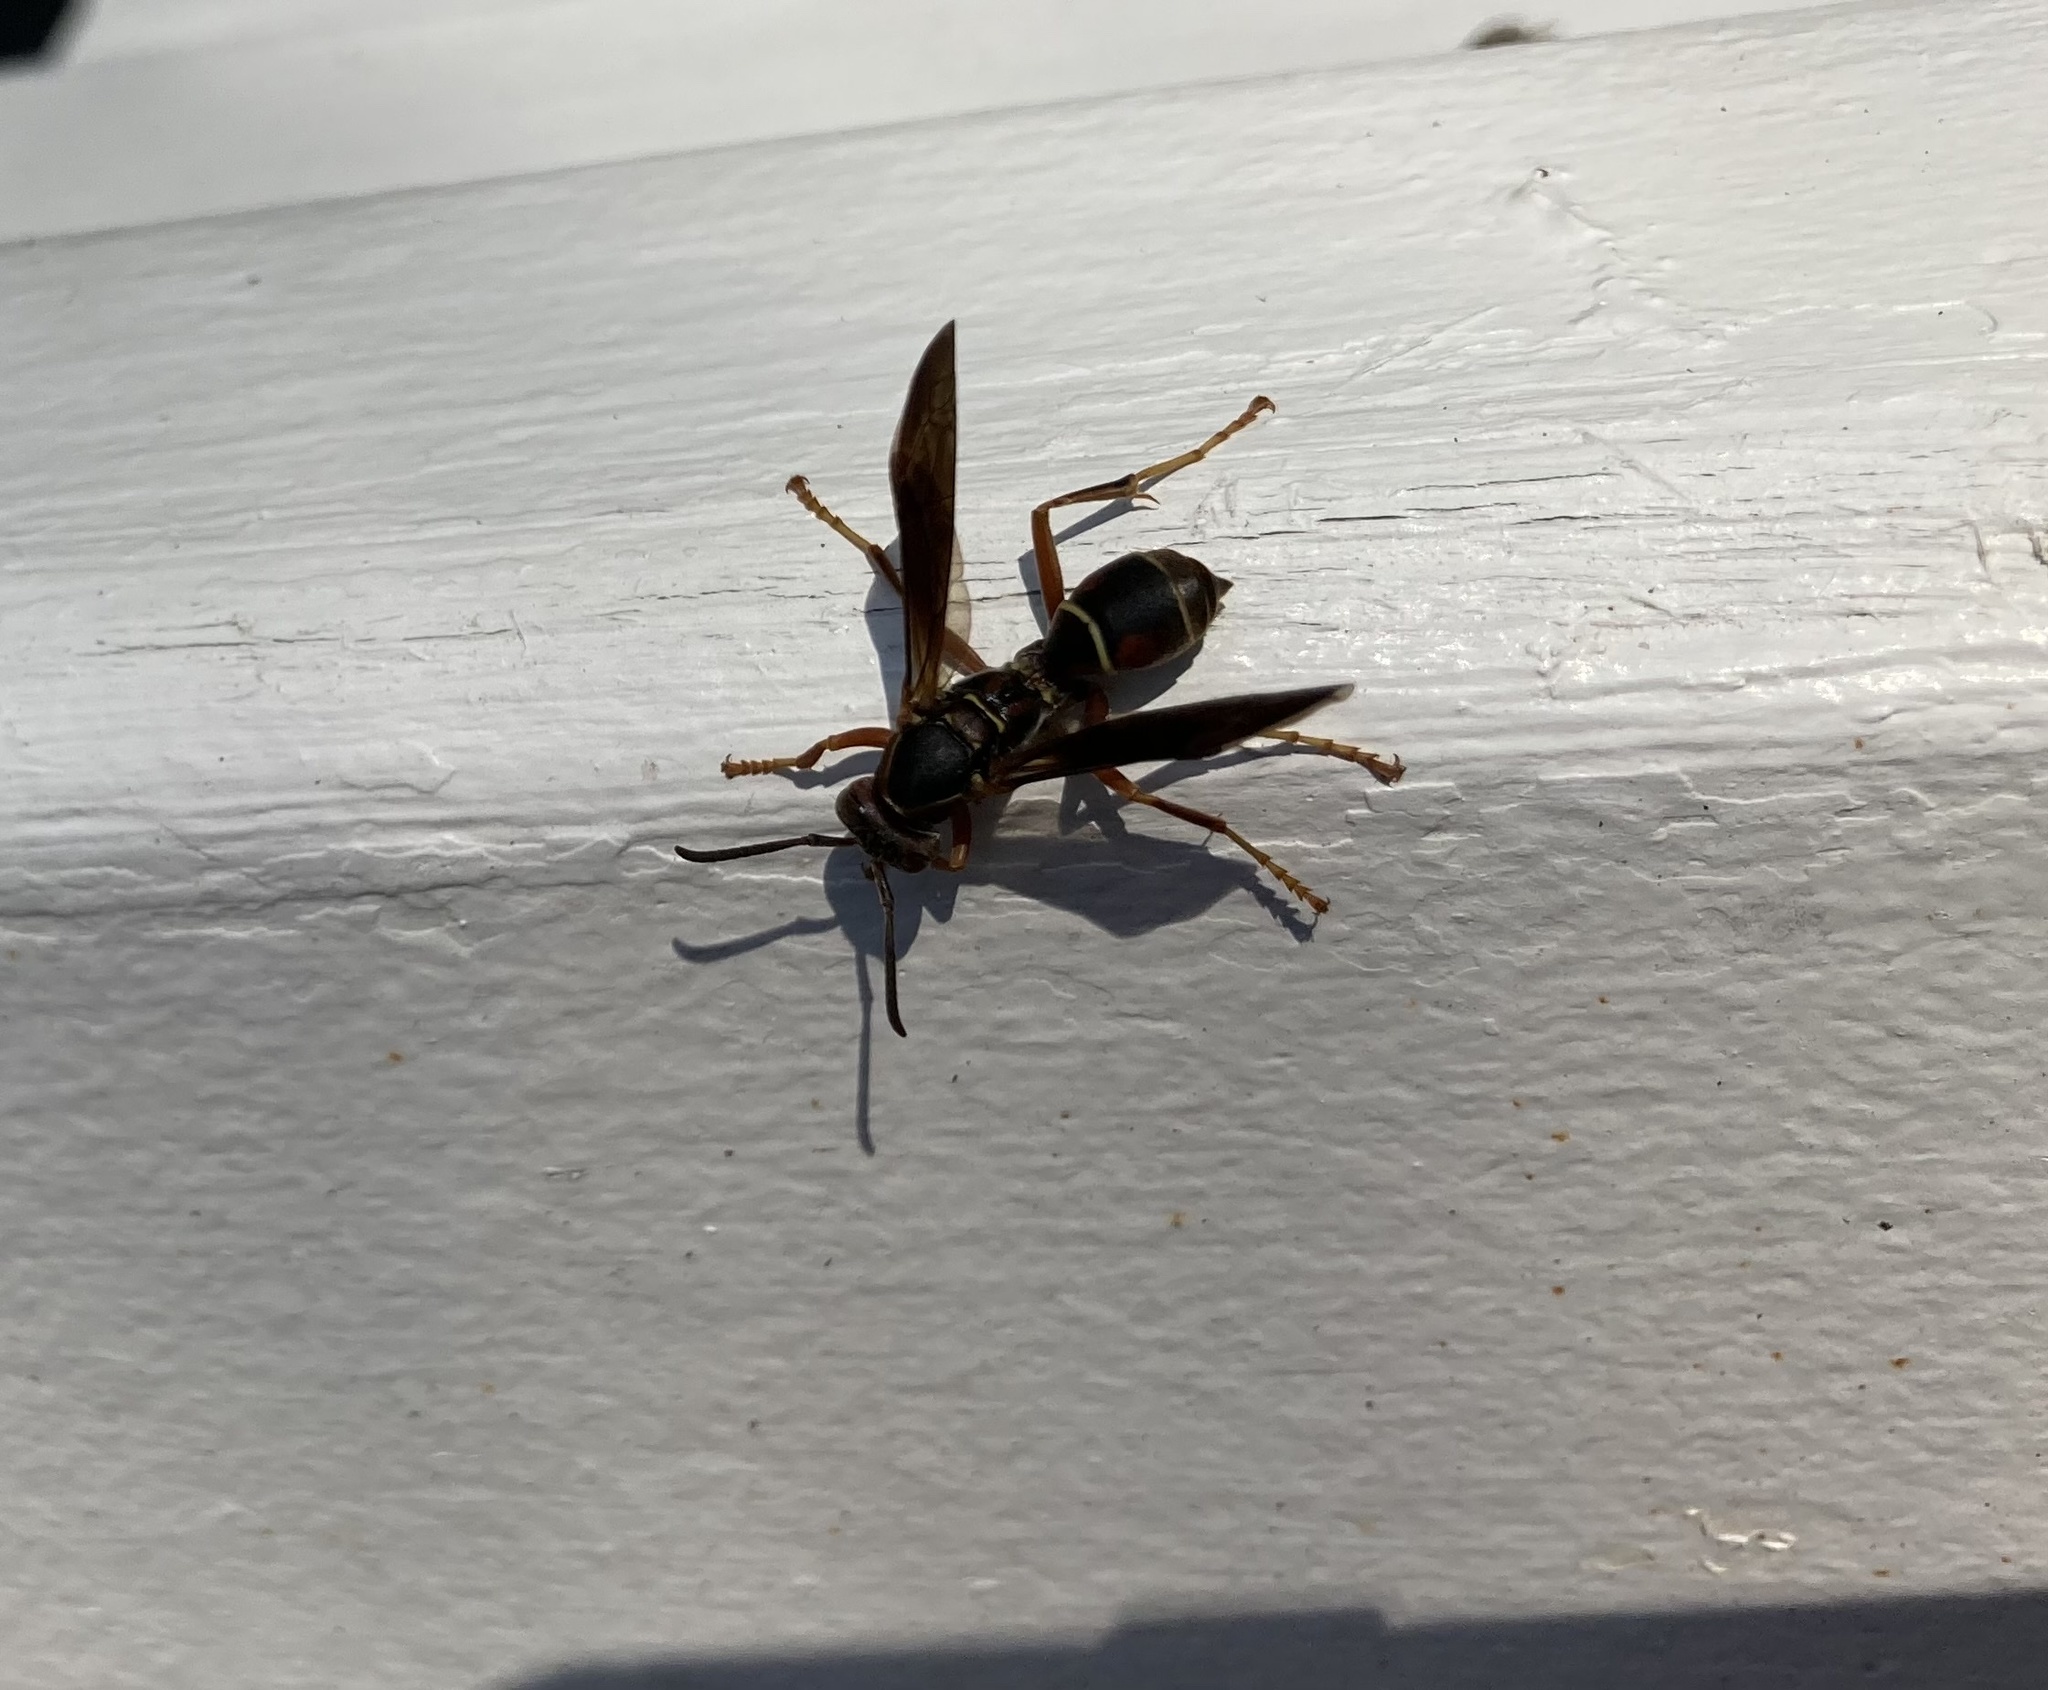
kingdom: Animalia
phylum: Arthropoda
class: Insecta
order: Hymenoptera
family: Eumenidae
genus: Polistes
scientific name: Polistes fuscatus
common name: Dark paper wasp
